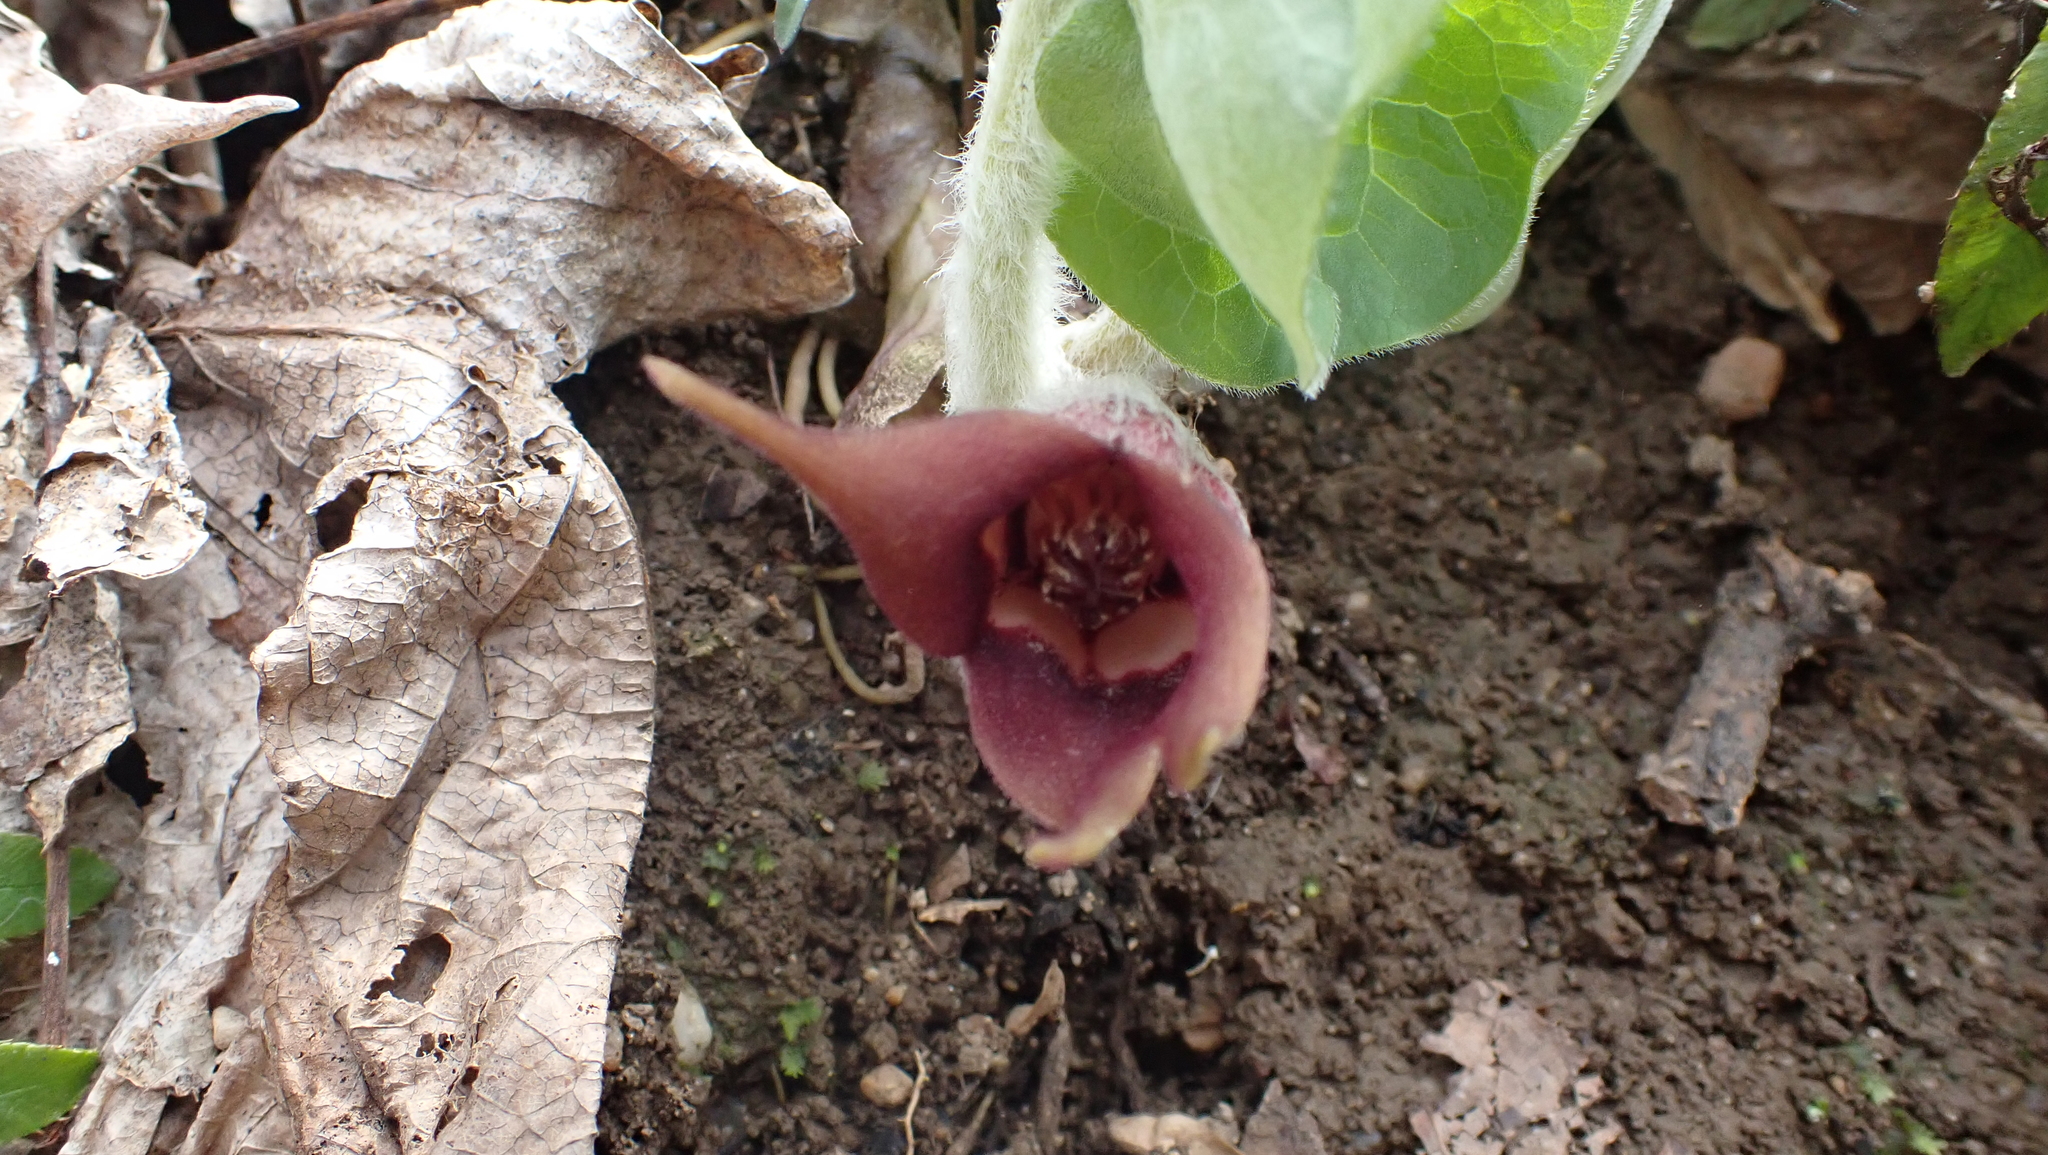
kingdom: Plantae
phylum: Tracheophyta
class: Magnoliopsida
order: Piperales
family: Aristolochiaceae
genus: Asarum
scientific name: Asarum canadense
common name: Wild ginger
